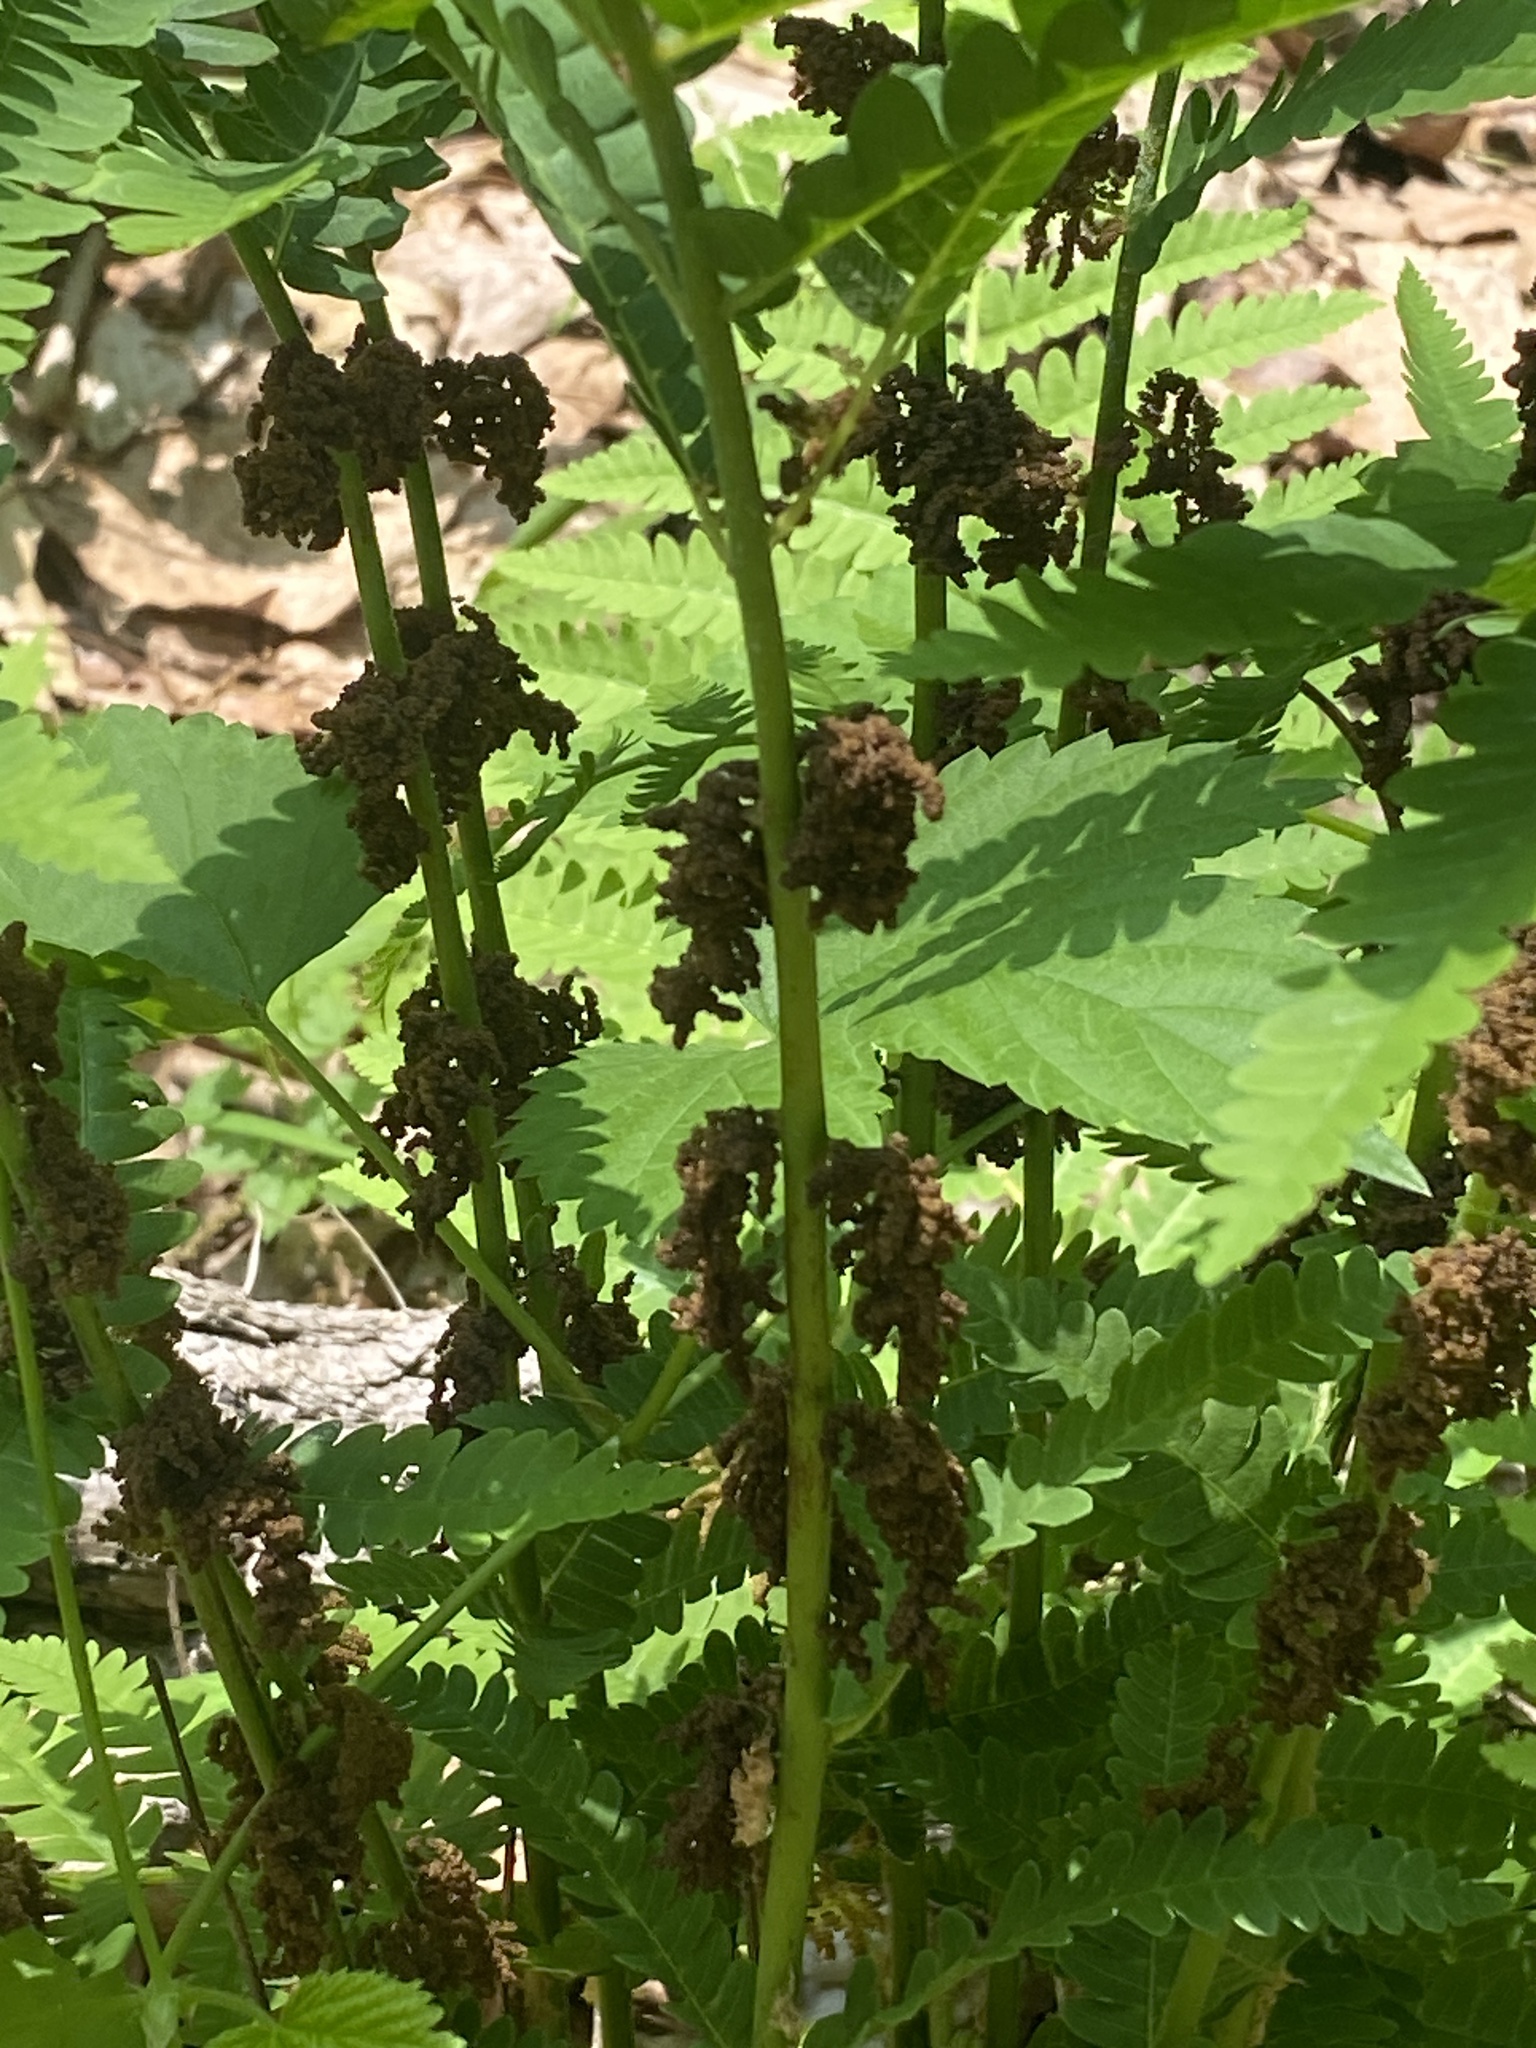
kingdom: Plantae
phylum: Tracheophyta
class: Polypodiopsida
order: Osmundales
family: Osmundaceae
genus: Claytosmunda
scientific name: Claytosmunda claytoniana
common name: Clayton's fern
